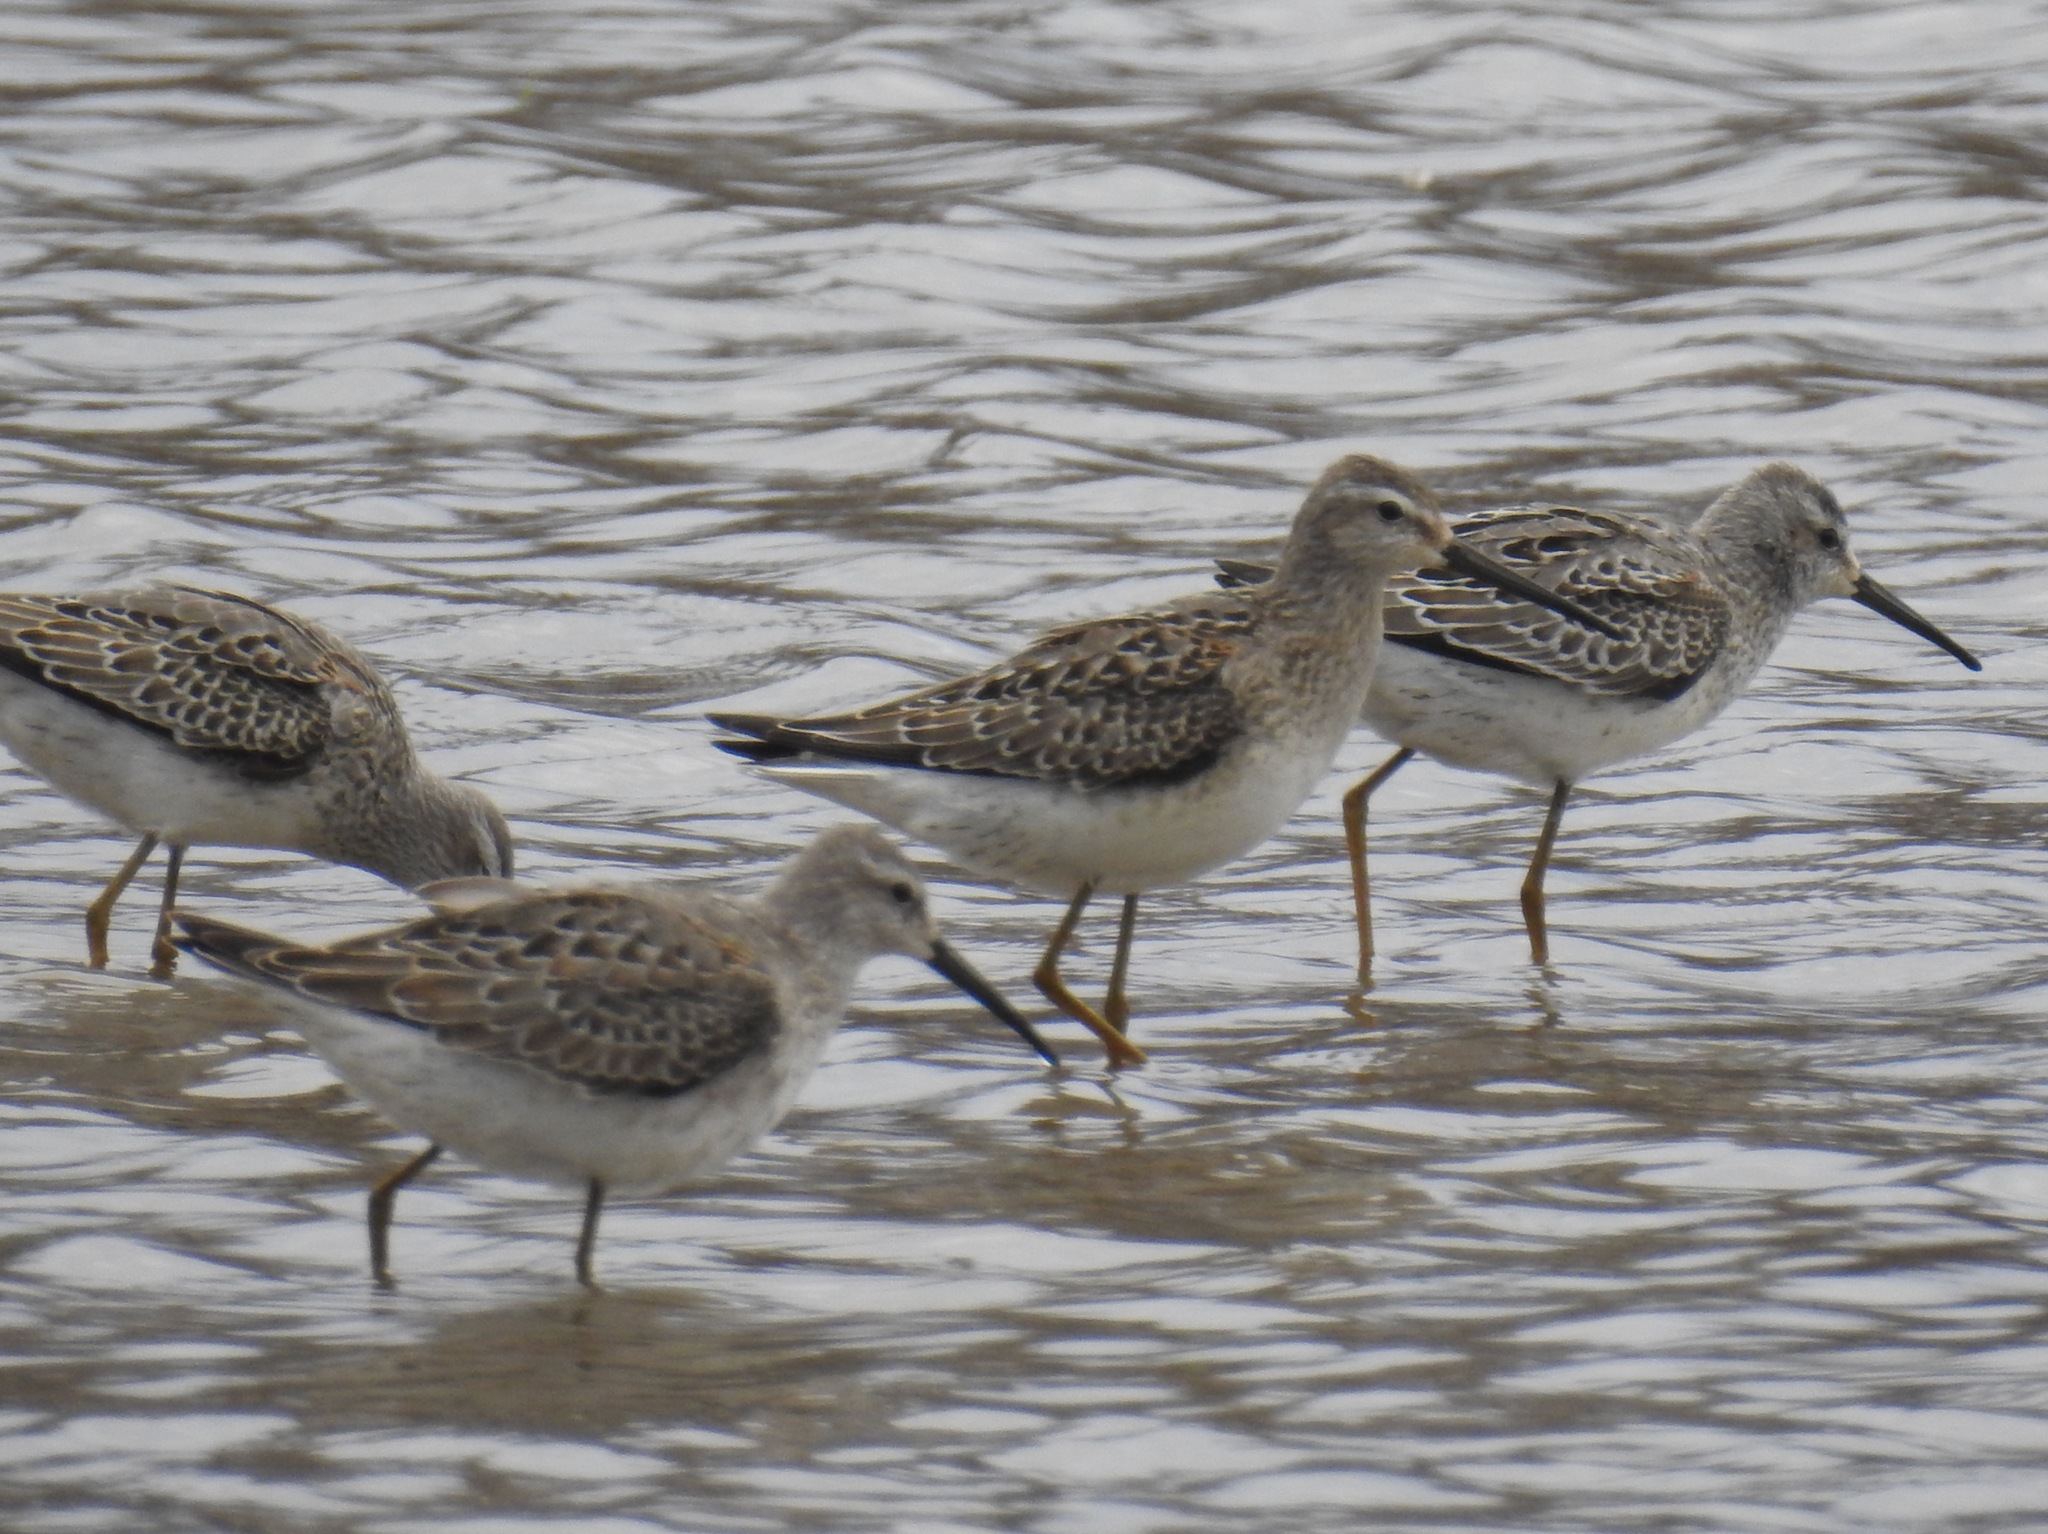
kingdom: Animalia
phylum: Chordata
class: Aves
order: Charadriiformes
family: Scolopacidae
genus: Calidris
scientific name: Calidris himantopus
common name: Stilt sandpiper
